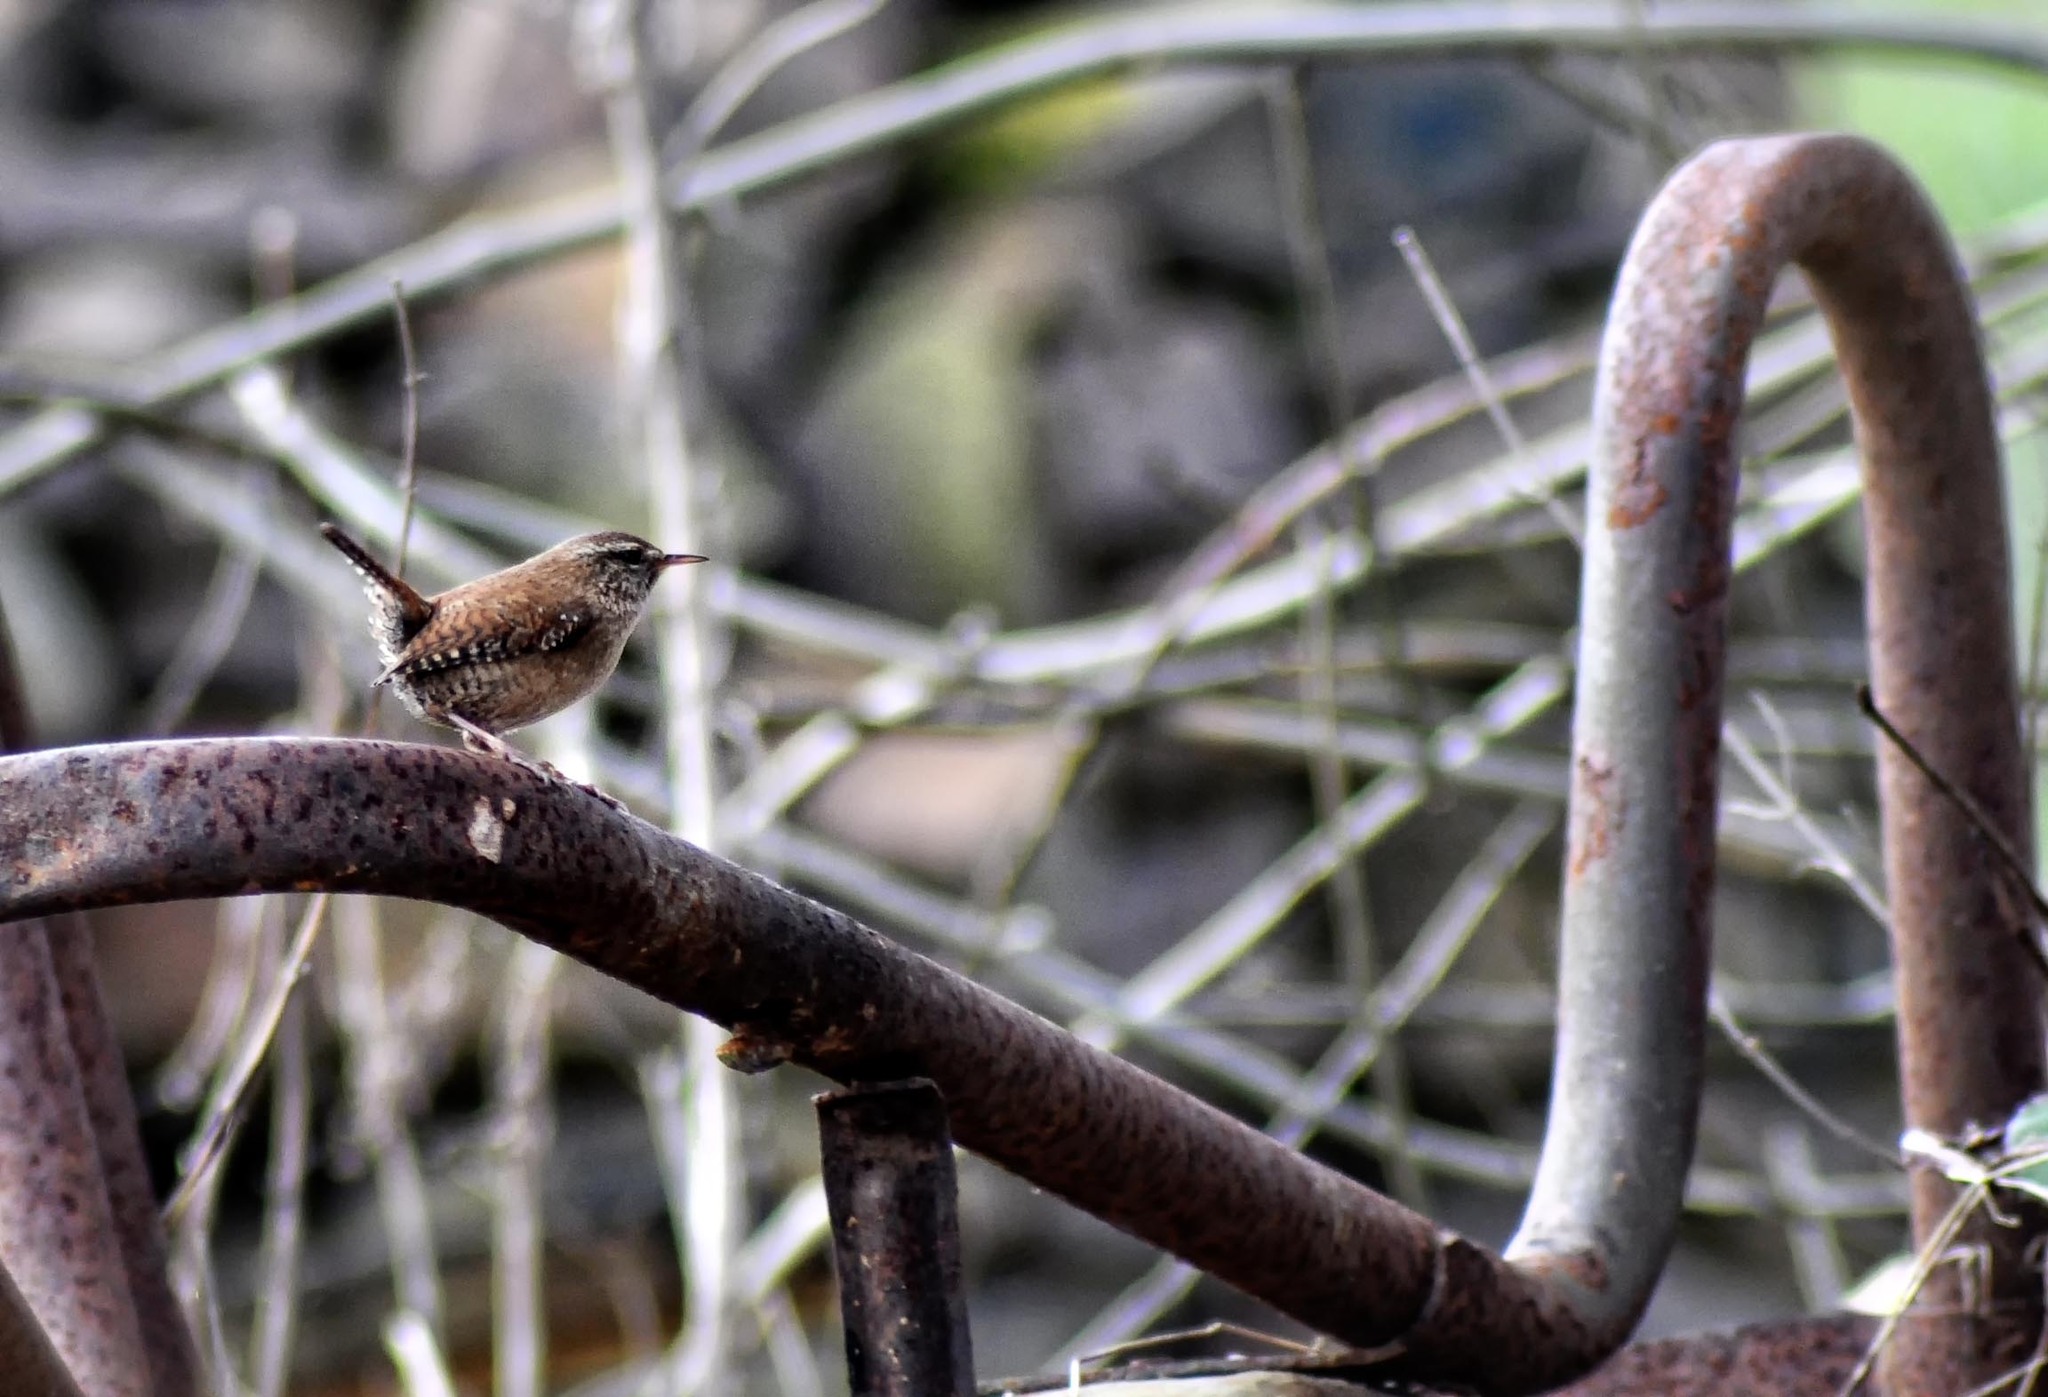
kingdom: Animalia
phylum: Chordata
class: Aves
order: Passeriformes
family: Troglodytidae
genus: Troglodytes
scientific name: Troglodytes troglodytes
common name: Eurasian wren
